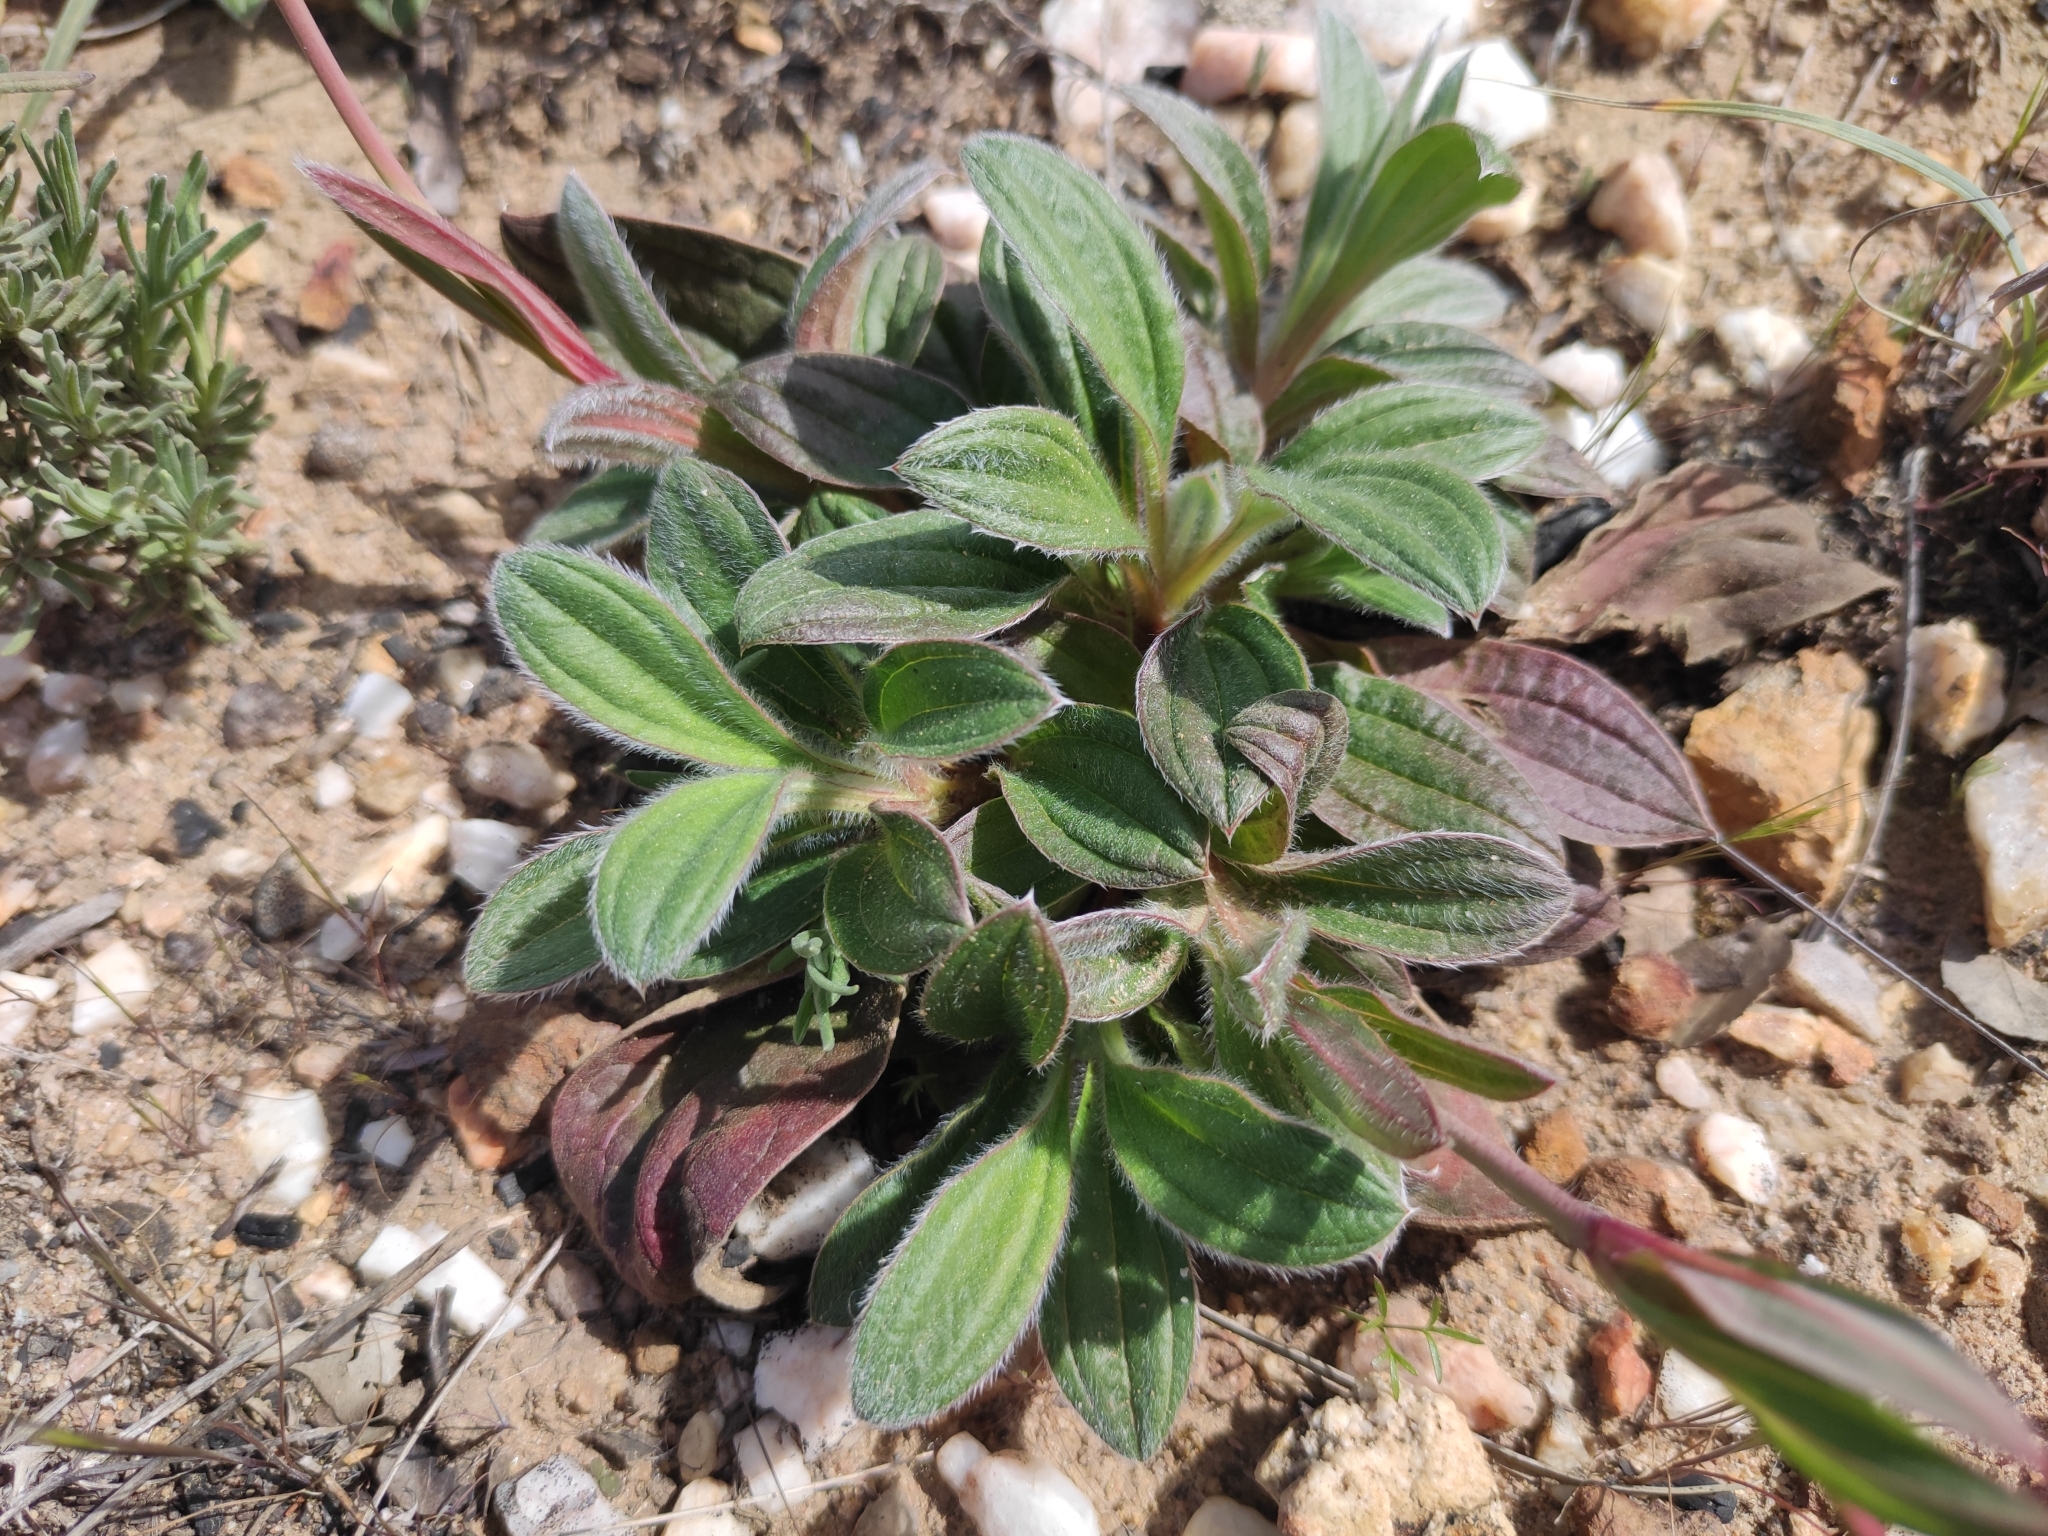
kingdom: Plantae
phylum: Tracheophyta
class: Magnoliopsida
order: Malvales
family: Cistaceae
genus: Tuberaria
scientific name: Tuberaria lignosa
